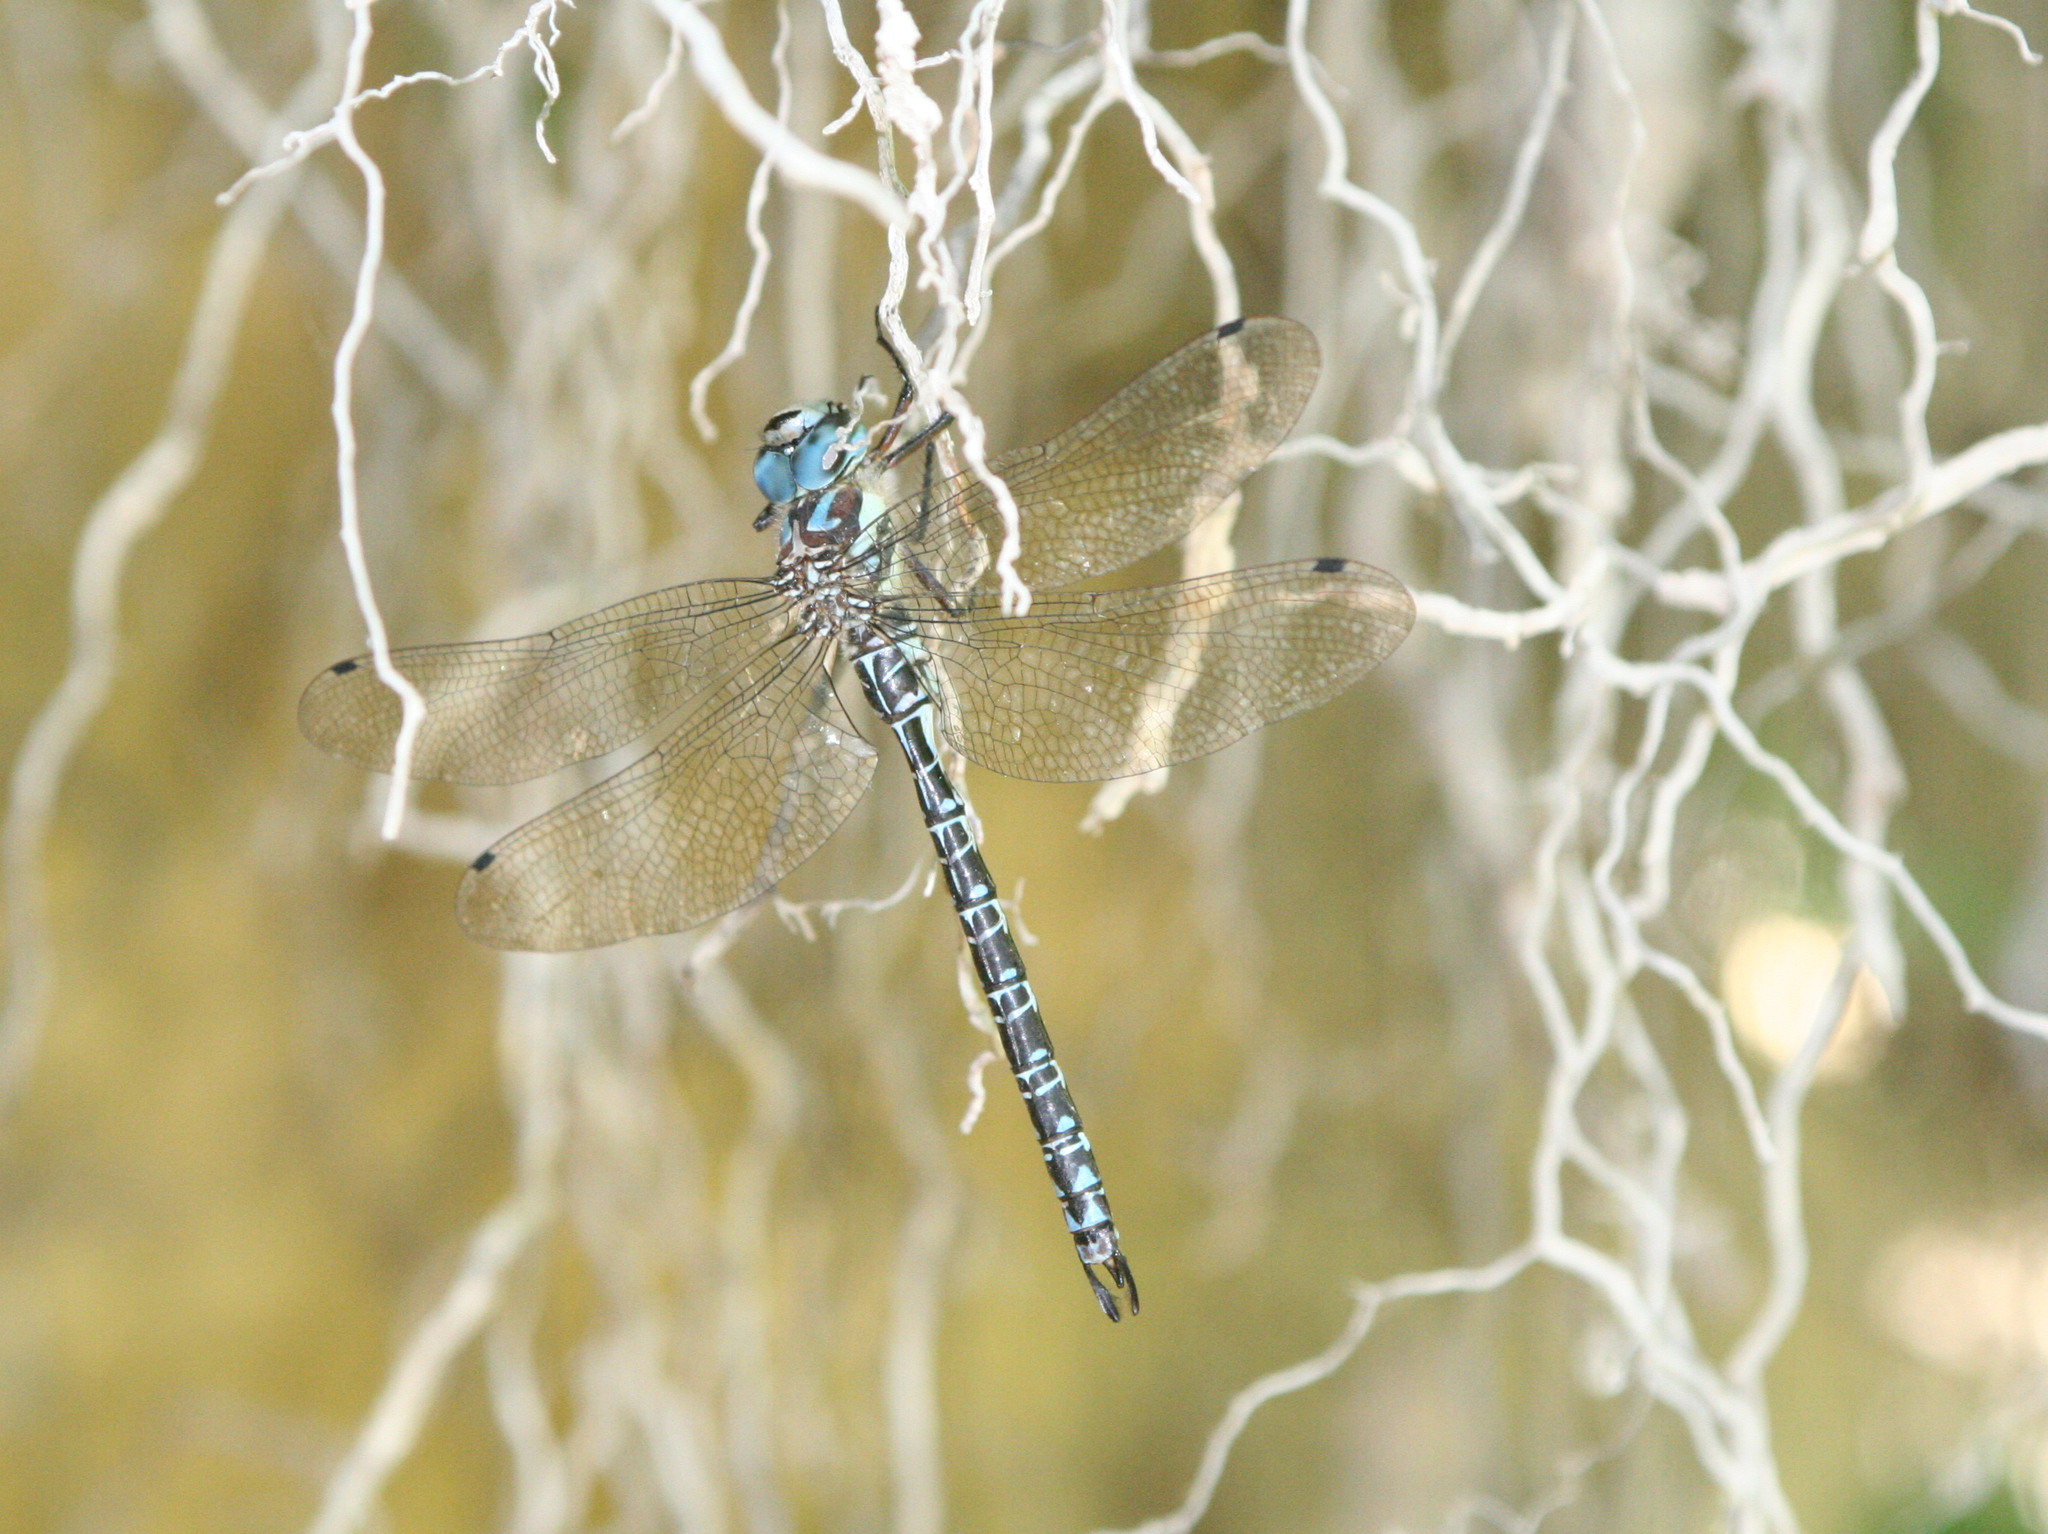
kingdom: Animalia
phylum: Arthropoda
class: Insecta
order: Odonata
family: Aeshnidae
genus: Caliaeschna
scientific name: Caliaeschna microstigma
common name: Eastern spectre
